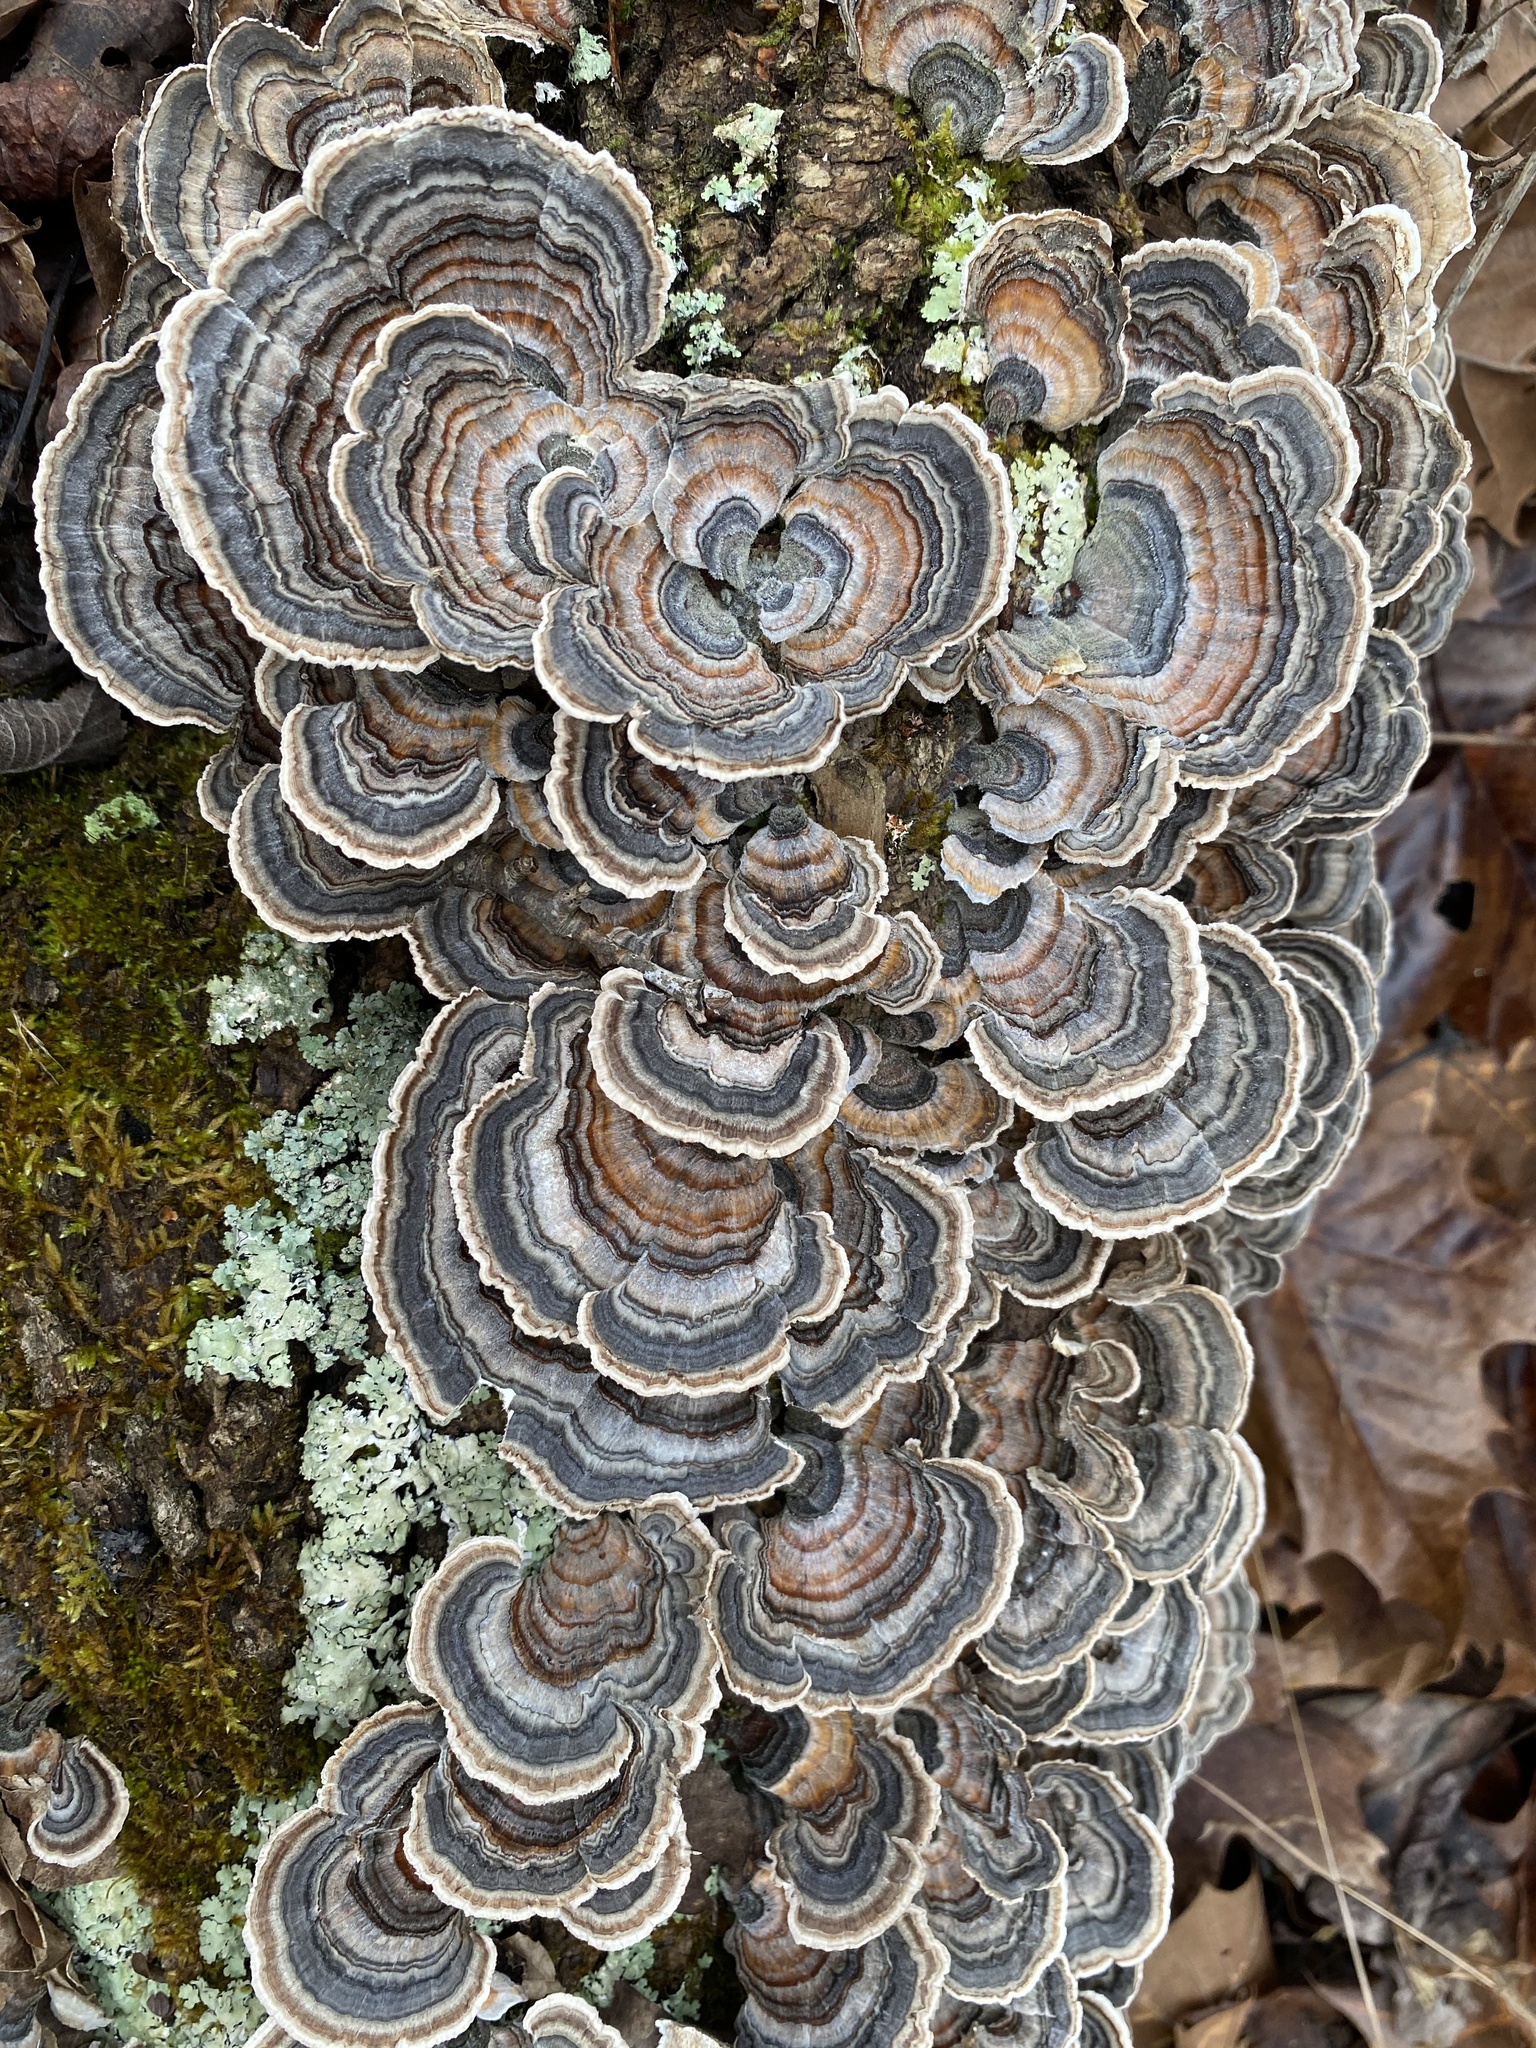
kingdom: Fungi
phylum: Basidiomycota
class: Agaricomycetes
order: Polyporales
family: Polyporaceae
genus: Trametes
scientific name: Trametes versicolor
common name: Turkeytail
